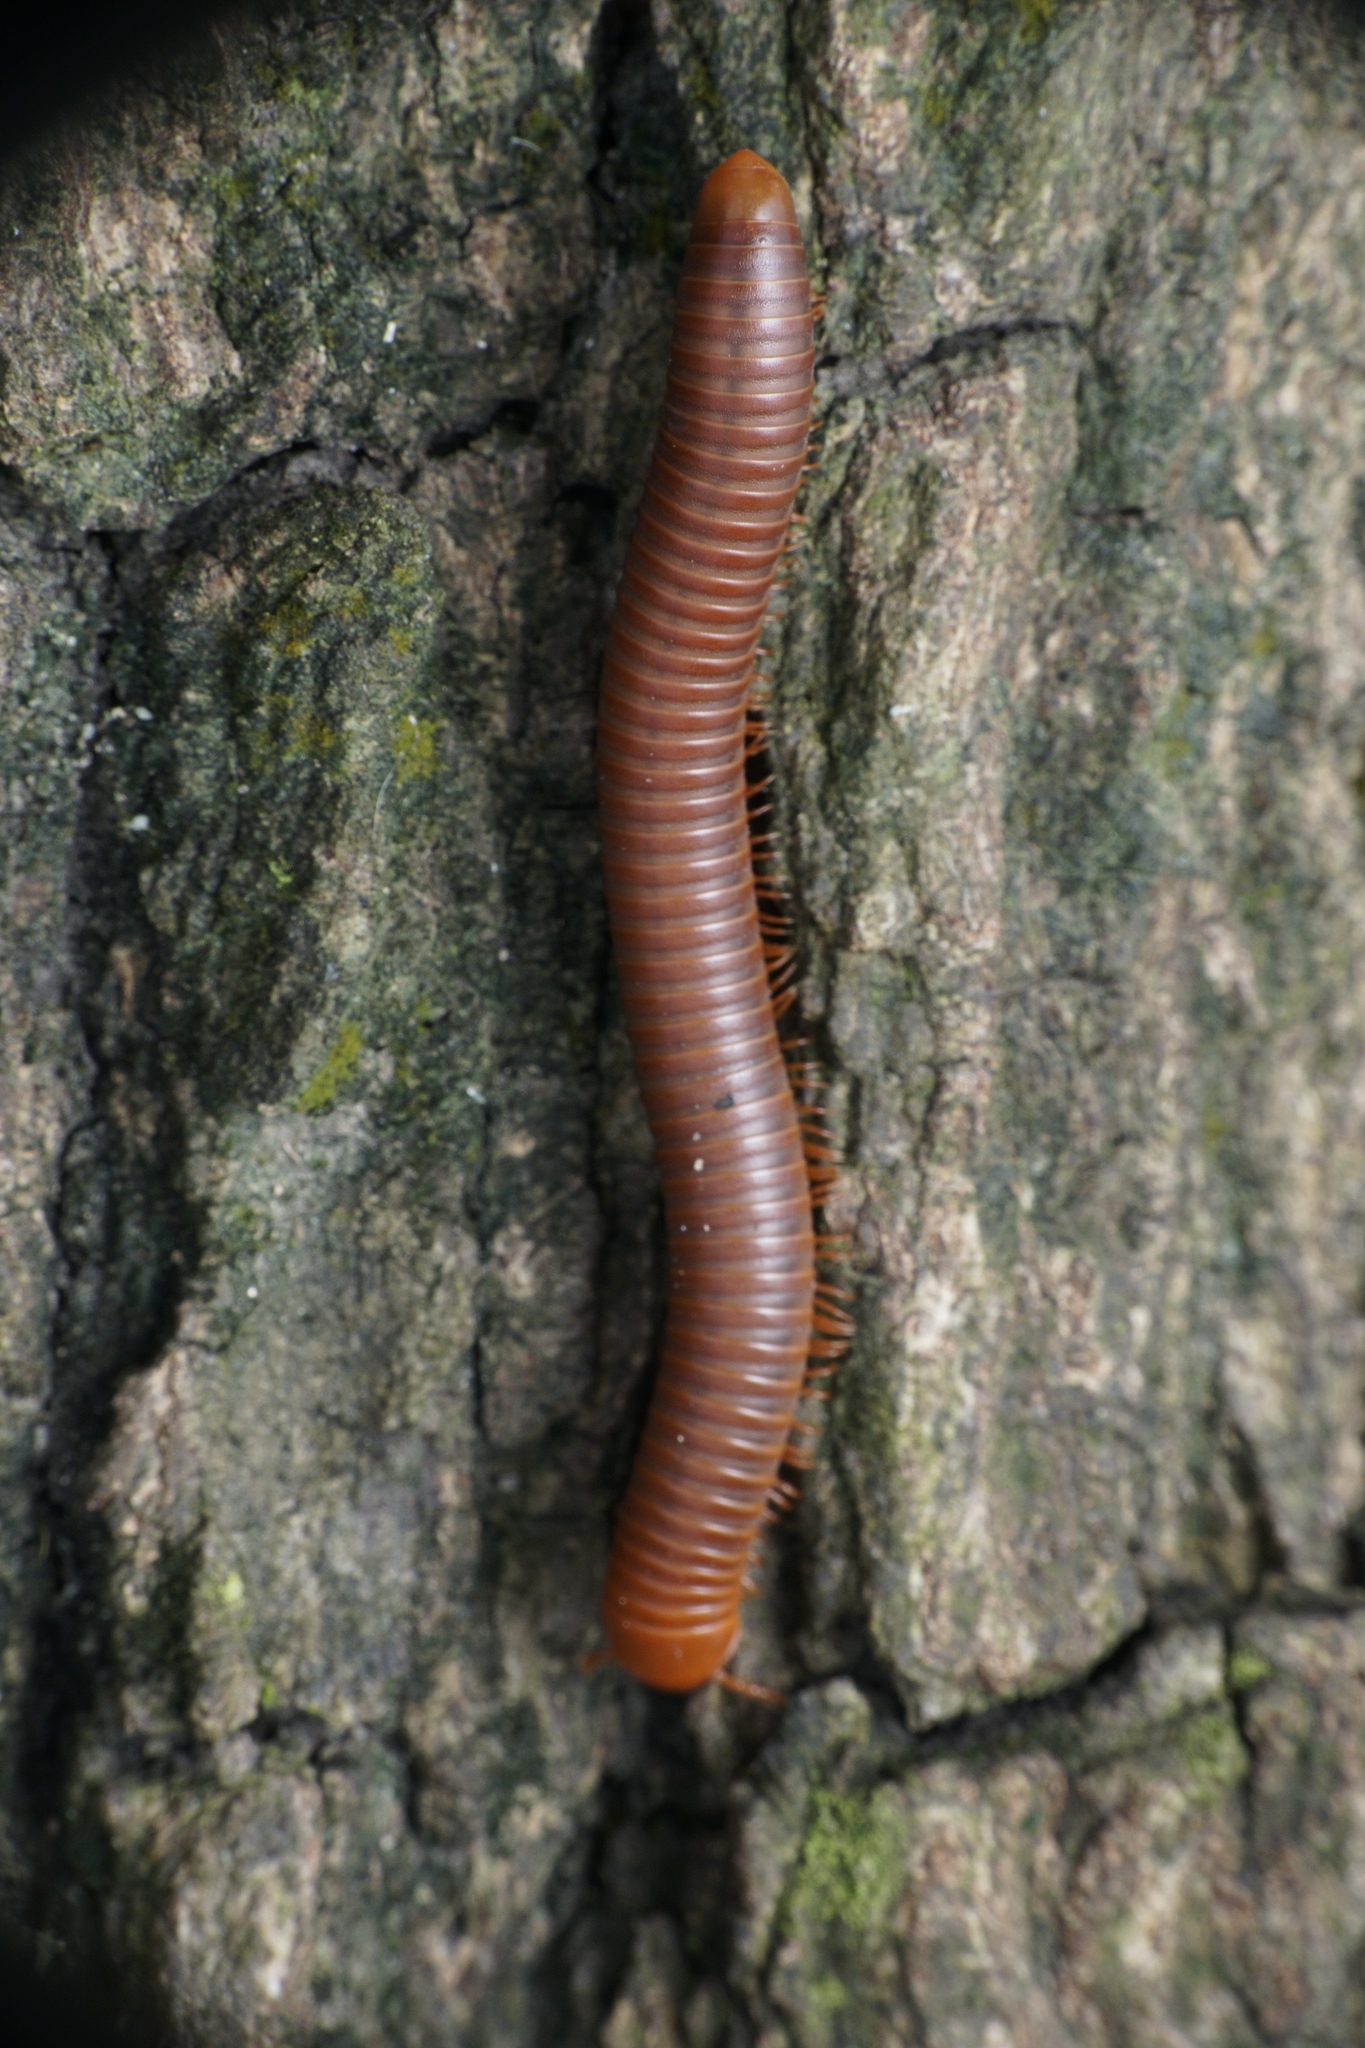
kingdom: Animalia
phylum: Arthropoda
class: Diplopoda
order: Spirobolida
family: Pachybolidae
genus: Trigoniulus
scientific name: Trigoniulus corallinus
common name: Millipede
